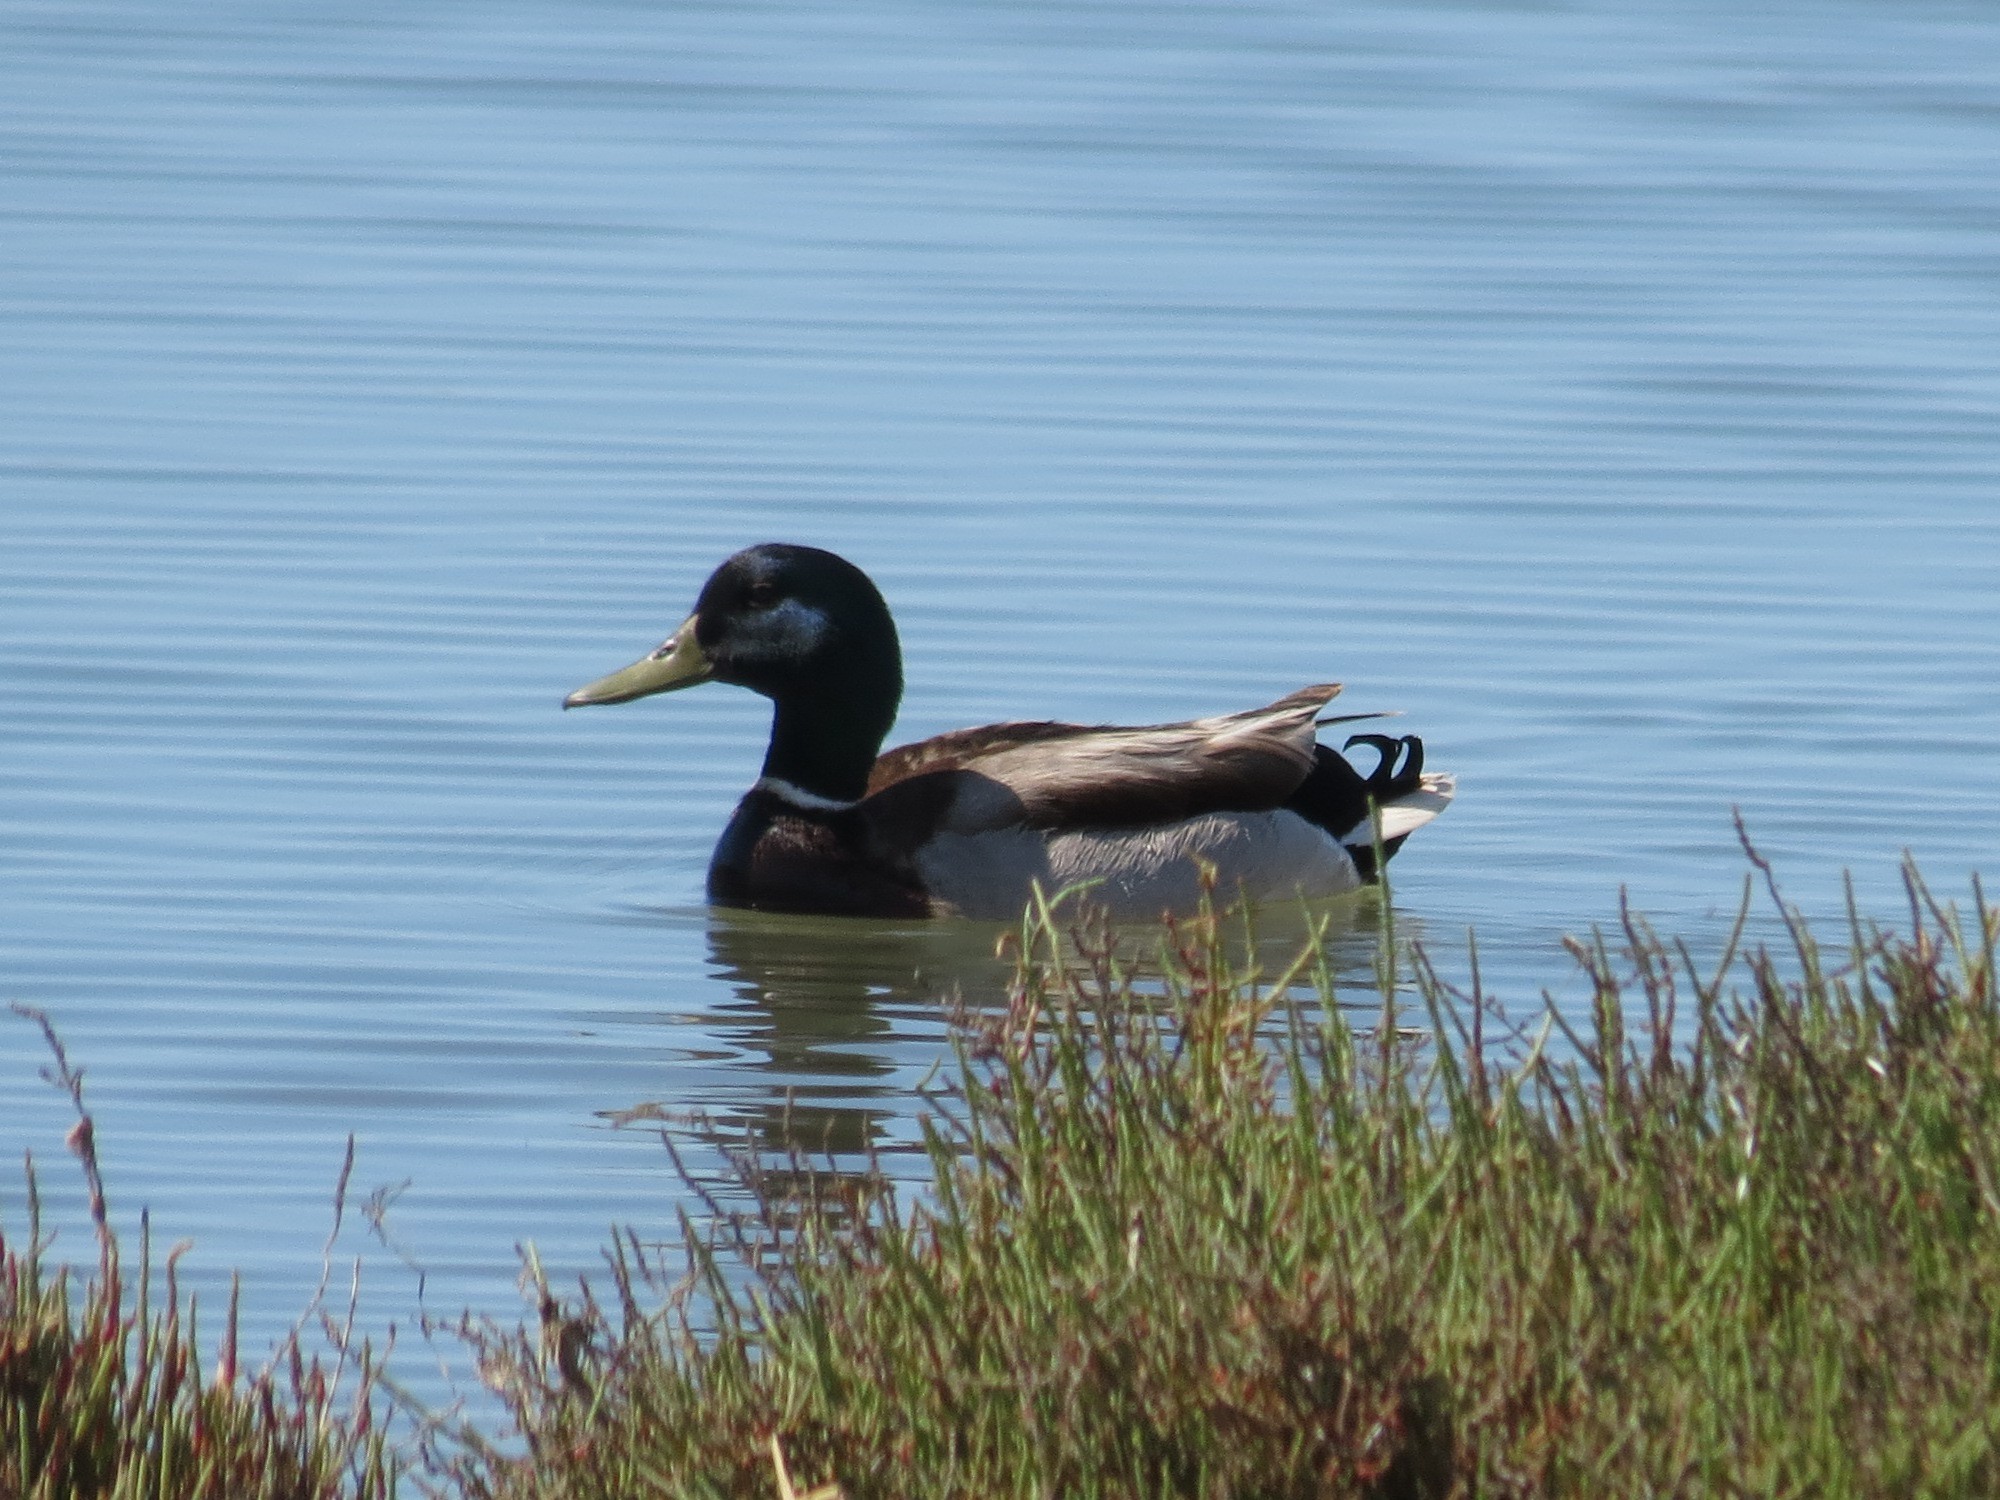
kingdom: Animalia
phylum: Chordata
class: Aves
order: Anseriformes
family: Anatidae
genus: Anas
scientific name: Anas platyrhynchos
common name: Mallard
